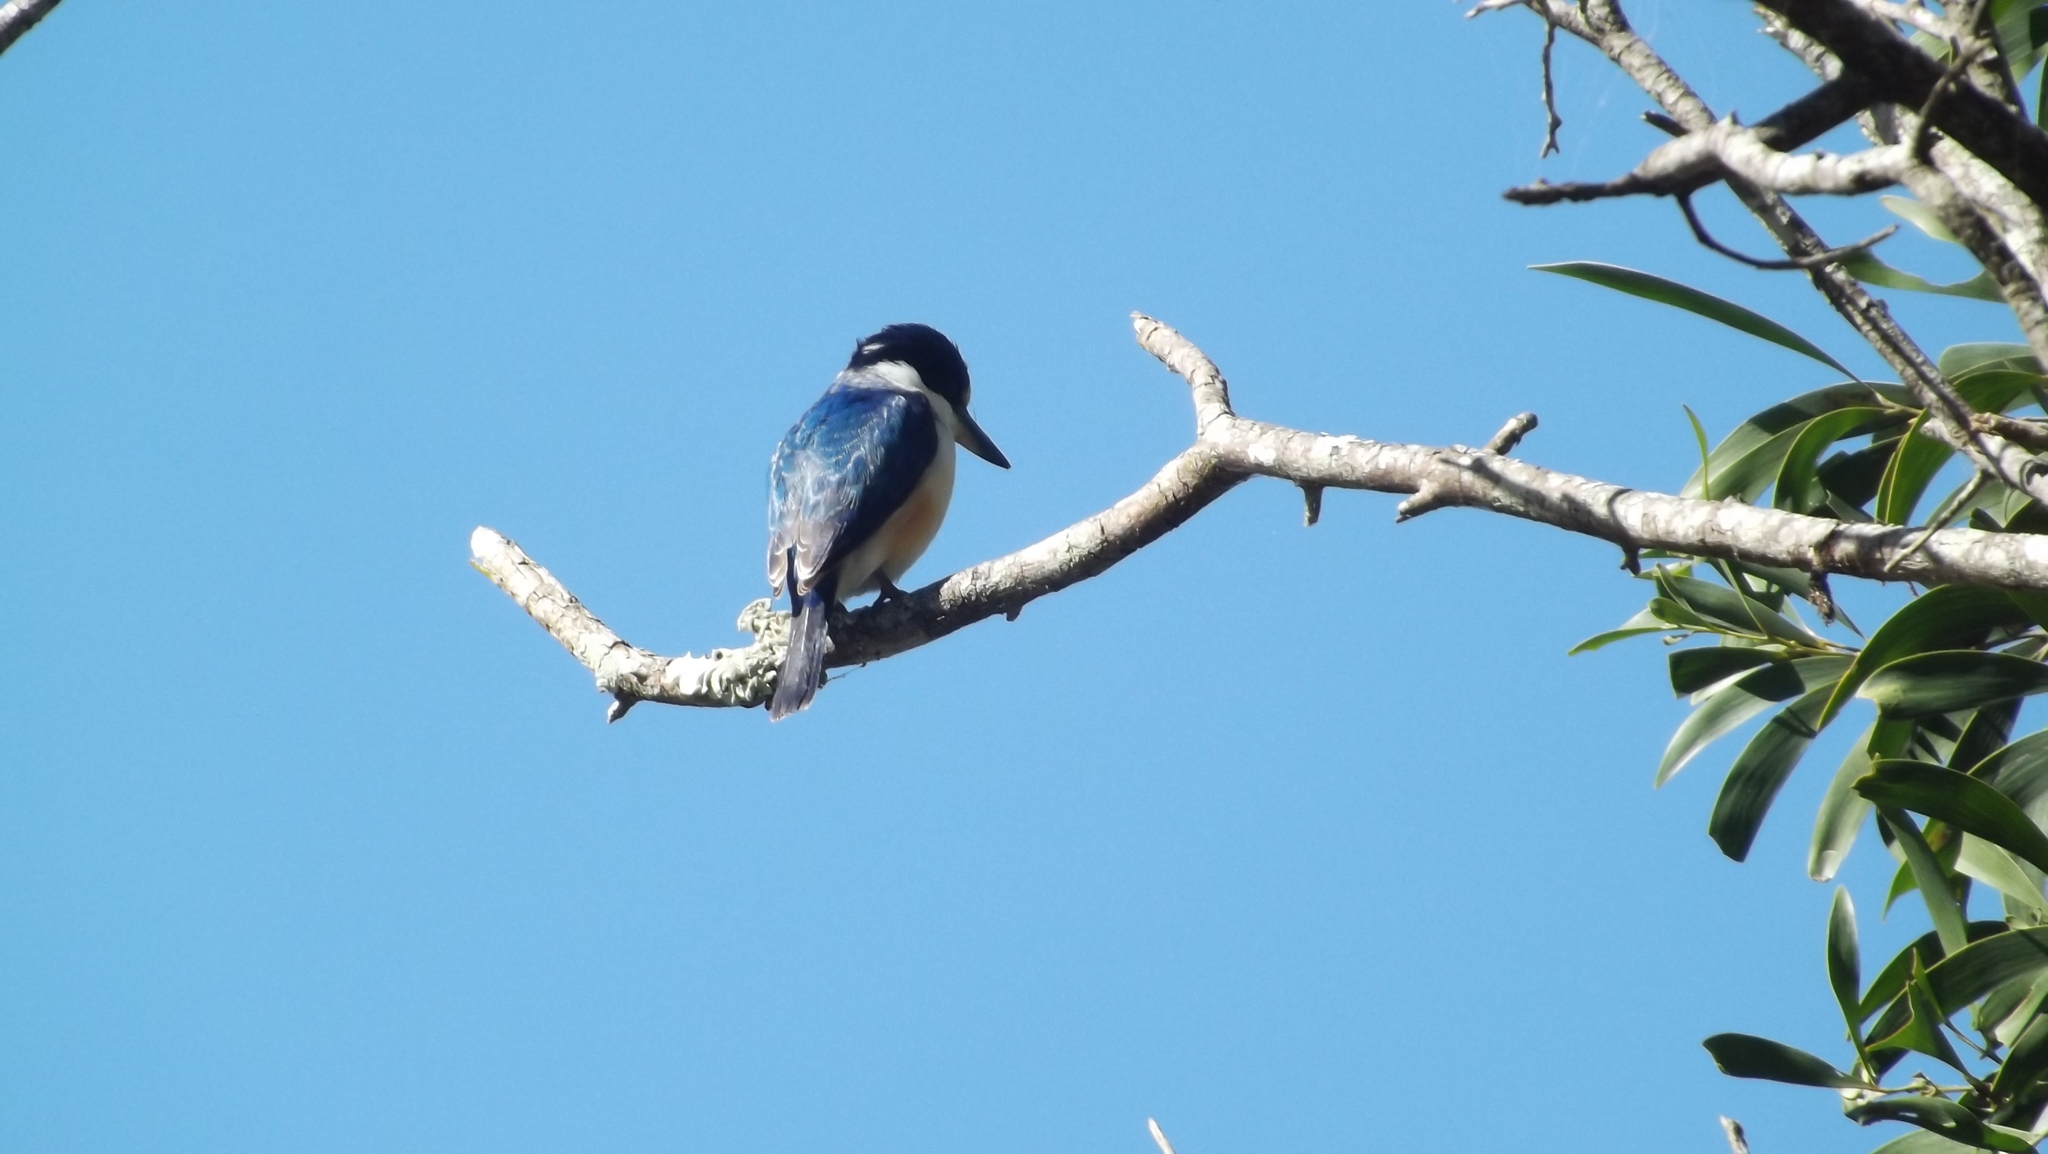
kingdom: Animalia
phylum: Chordata
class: Aves
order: Coraciiformes
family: Alcedinidae
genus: Todiramphus
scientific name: Todiramphus macleayii
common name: Forest kingfisher
